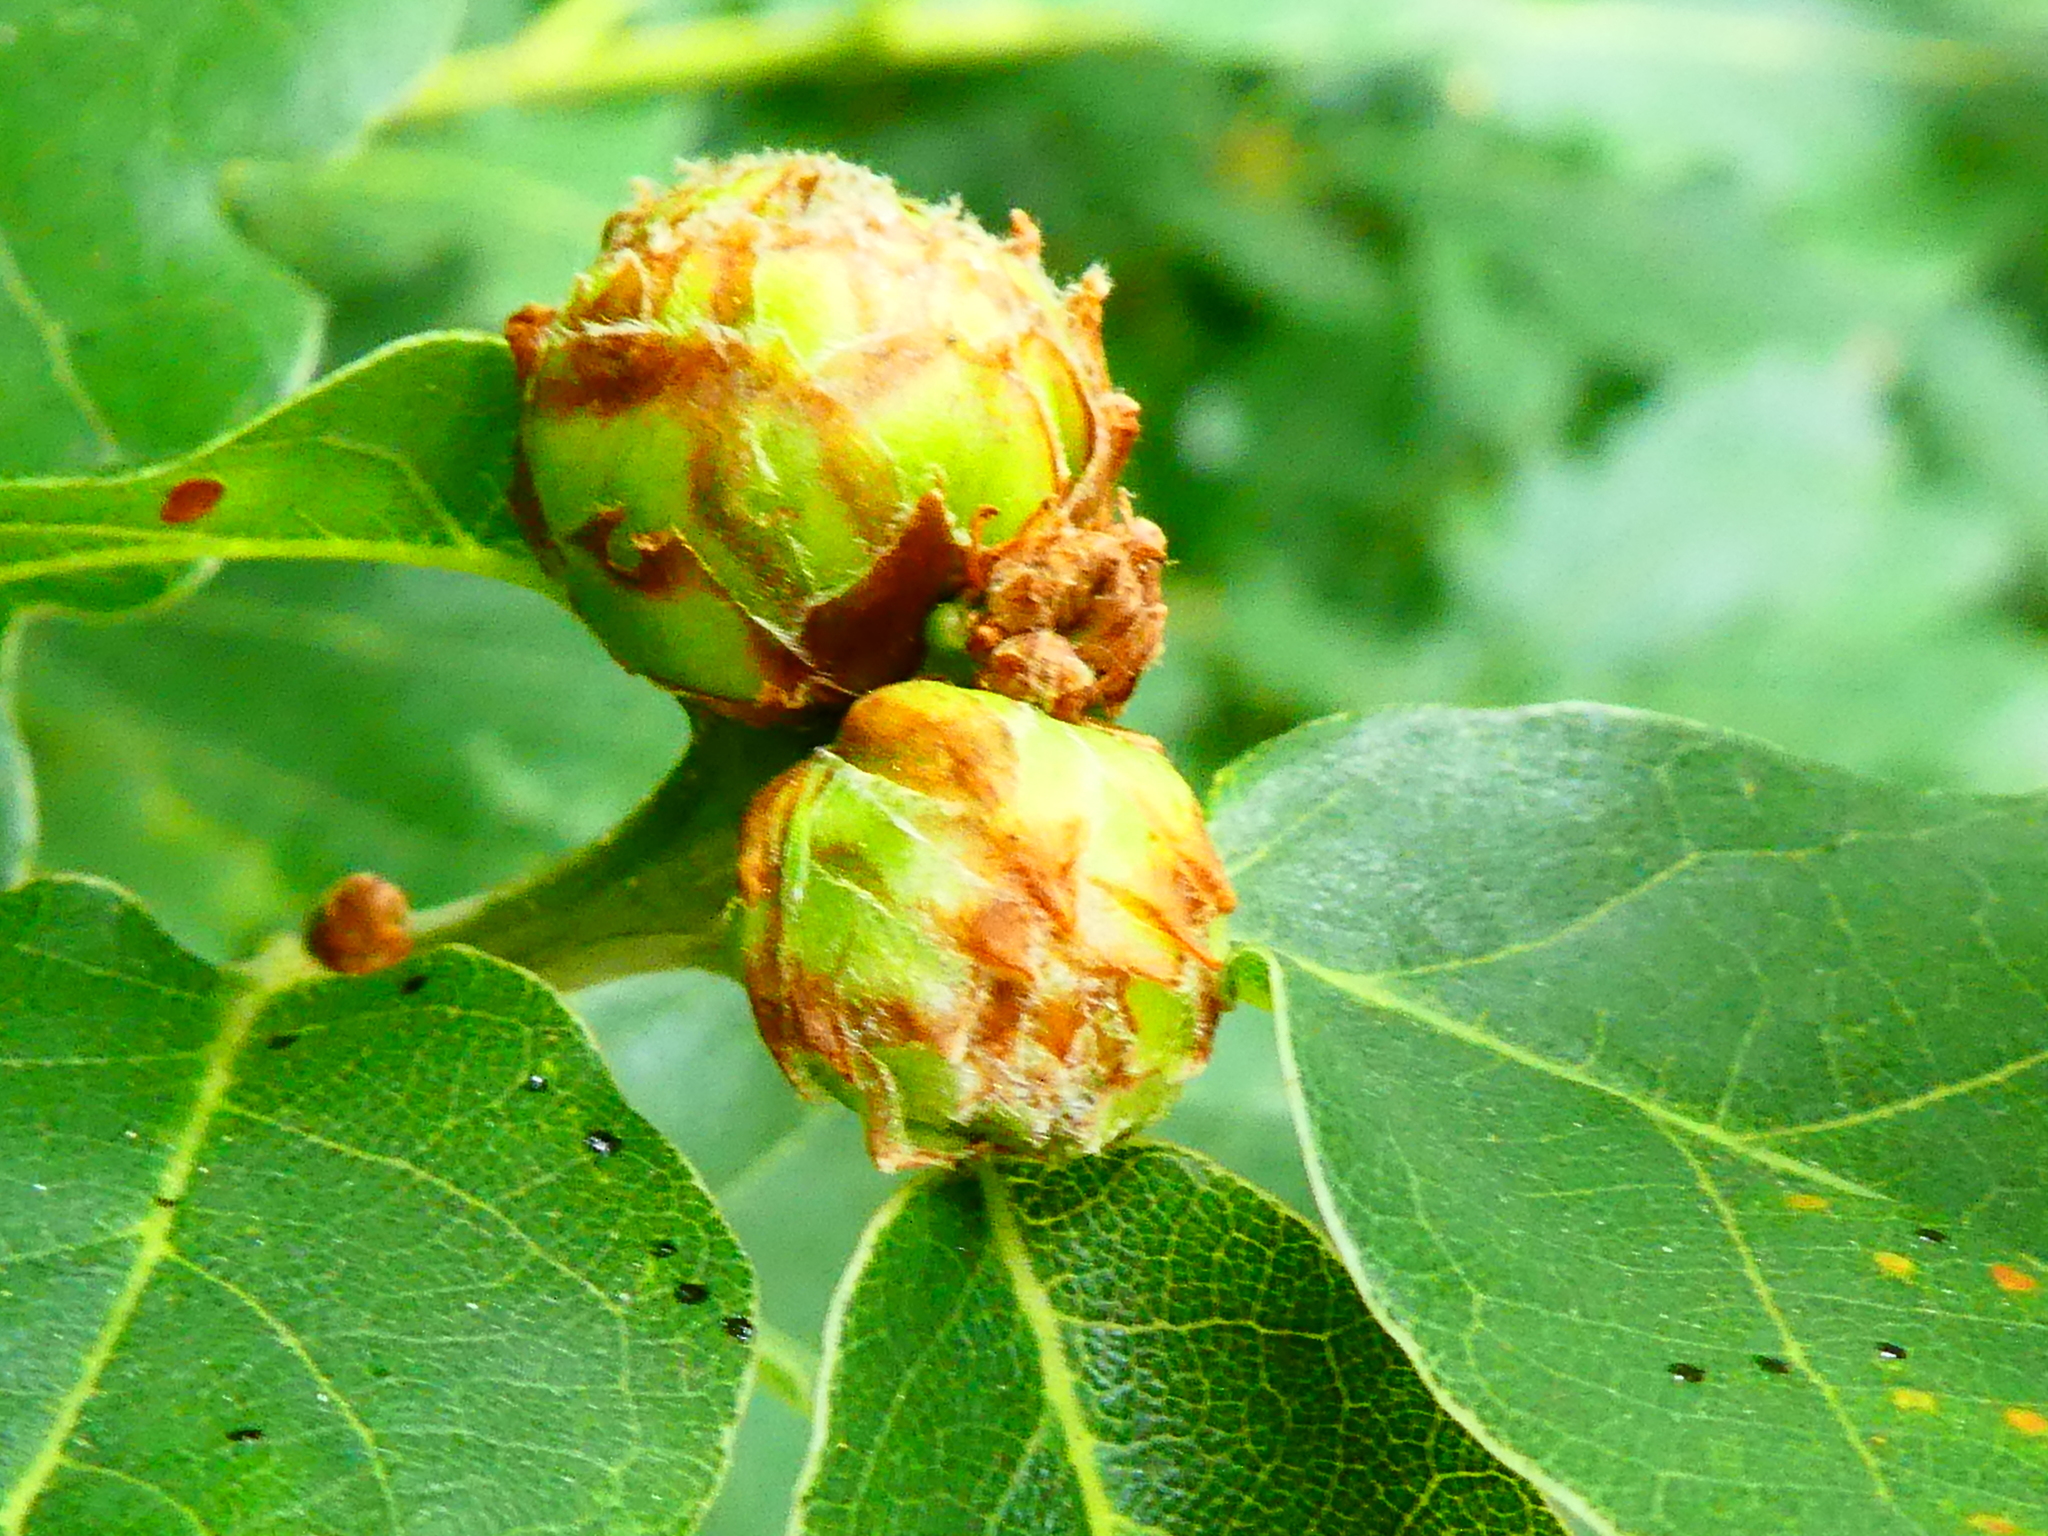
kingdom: Animalia
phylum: Arthropoda
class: Insecta
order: Hymenoptera
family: Cynipidae
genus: Andricus
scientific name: Andricus foecundatrix
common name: Artichoke gall
